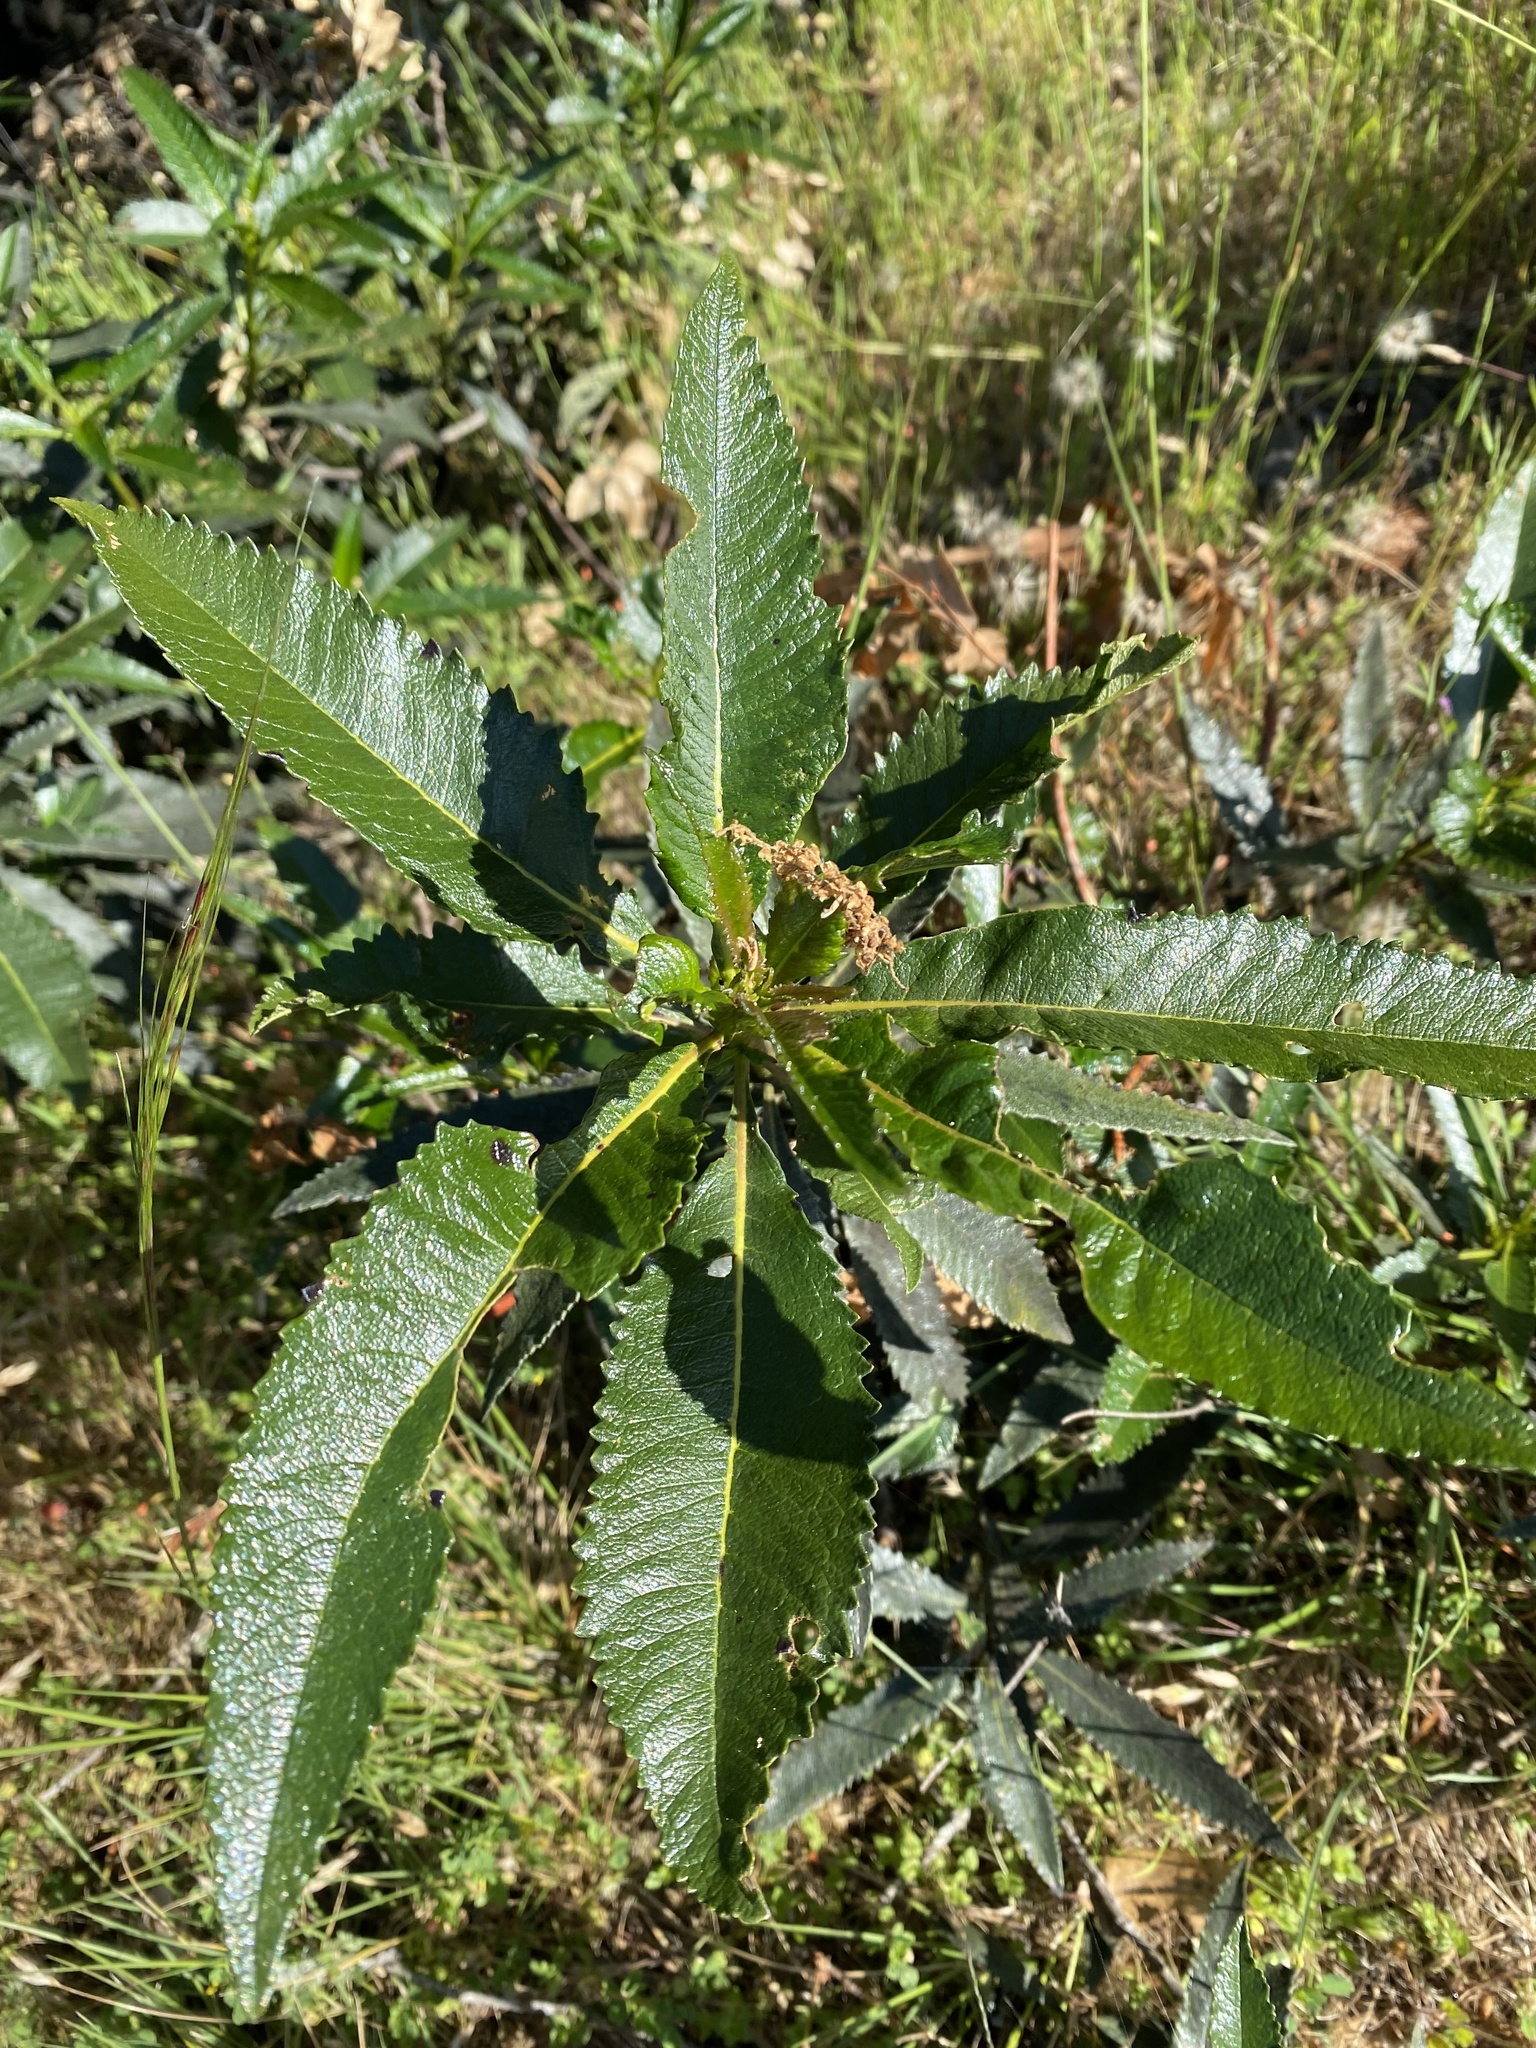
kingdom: Plantae
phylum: Tracheophyta
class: Magnoliopsida
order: Boraginales
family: Namaceae
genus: Eriodictyon
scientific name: Eriodictyon californicum
